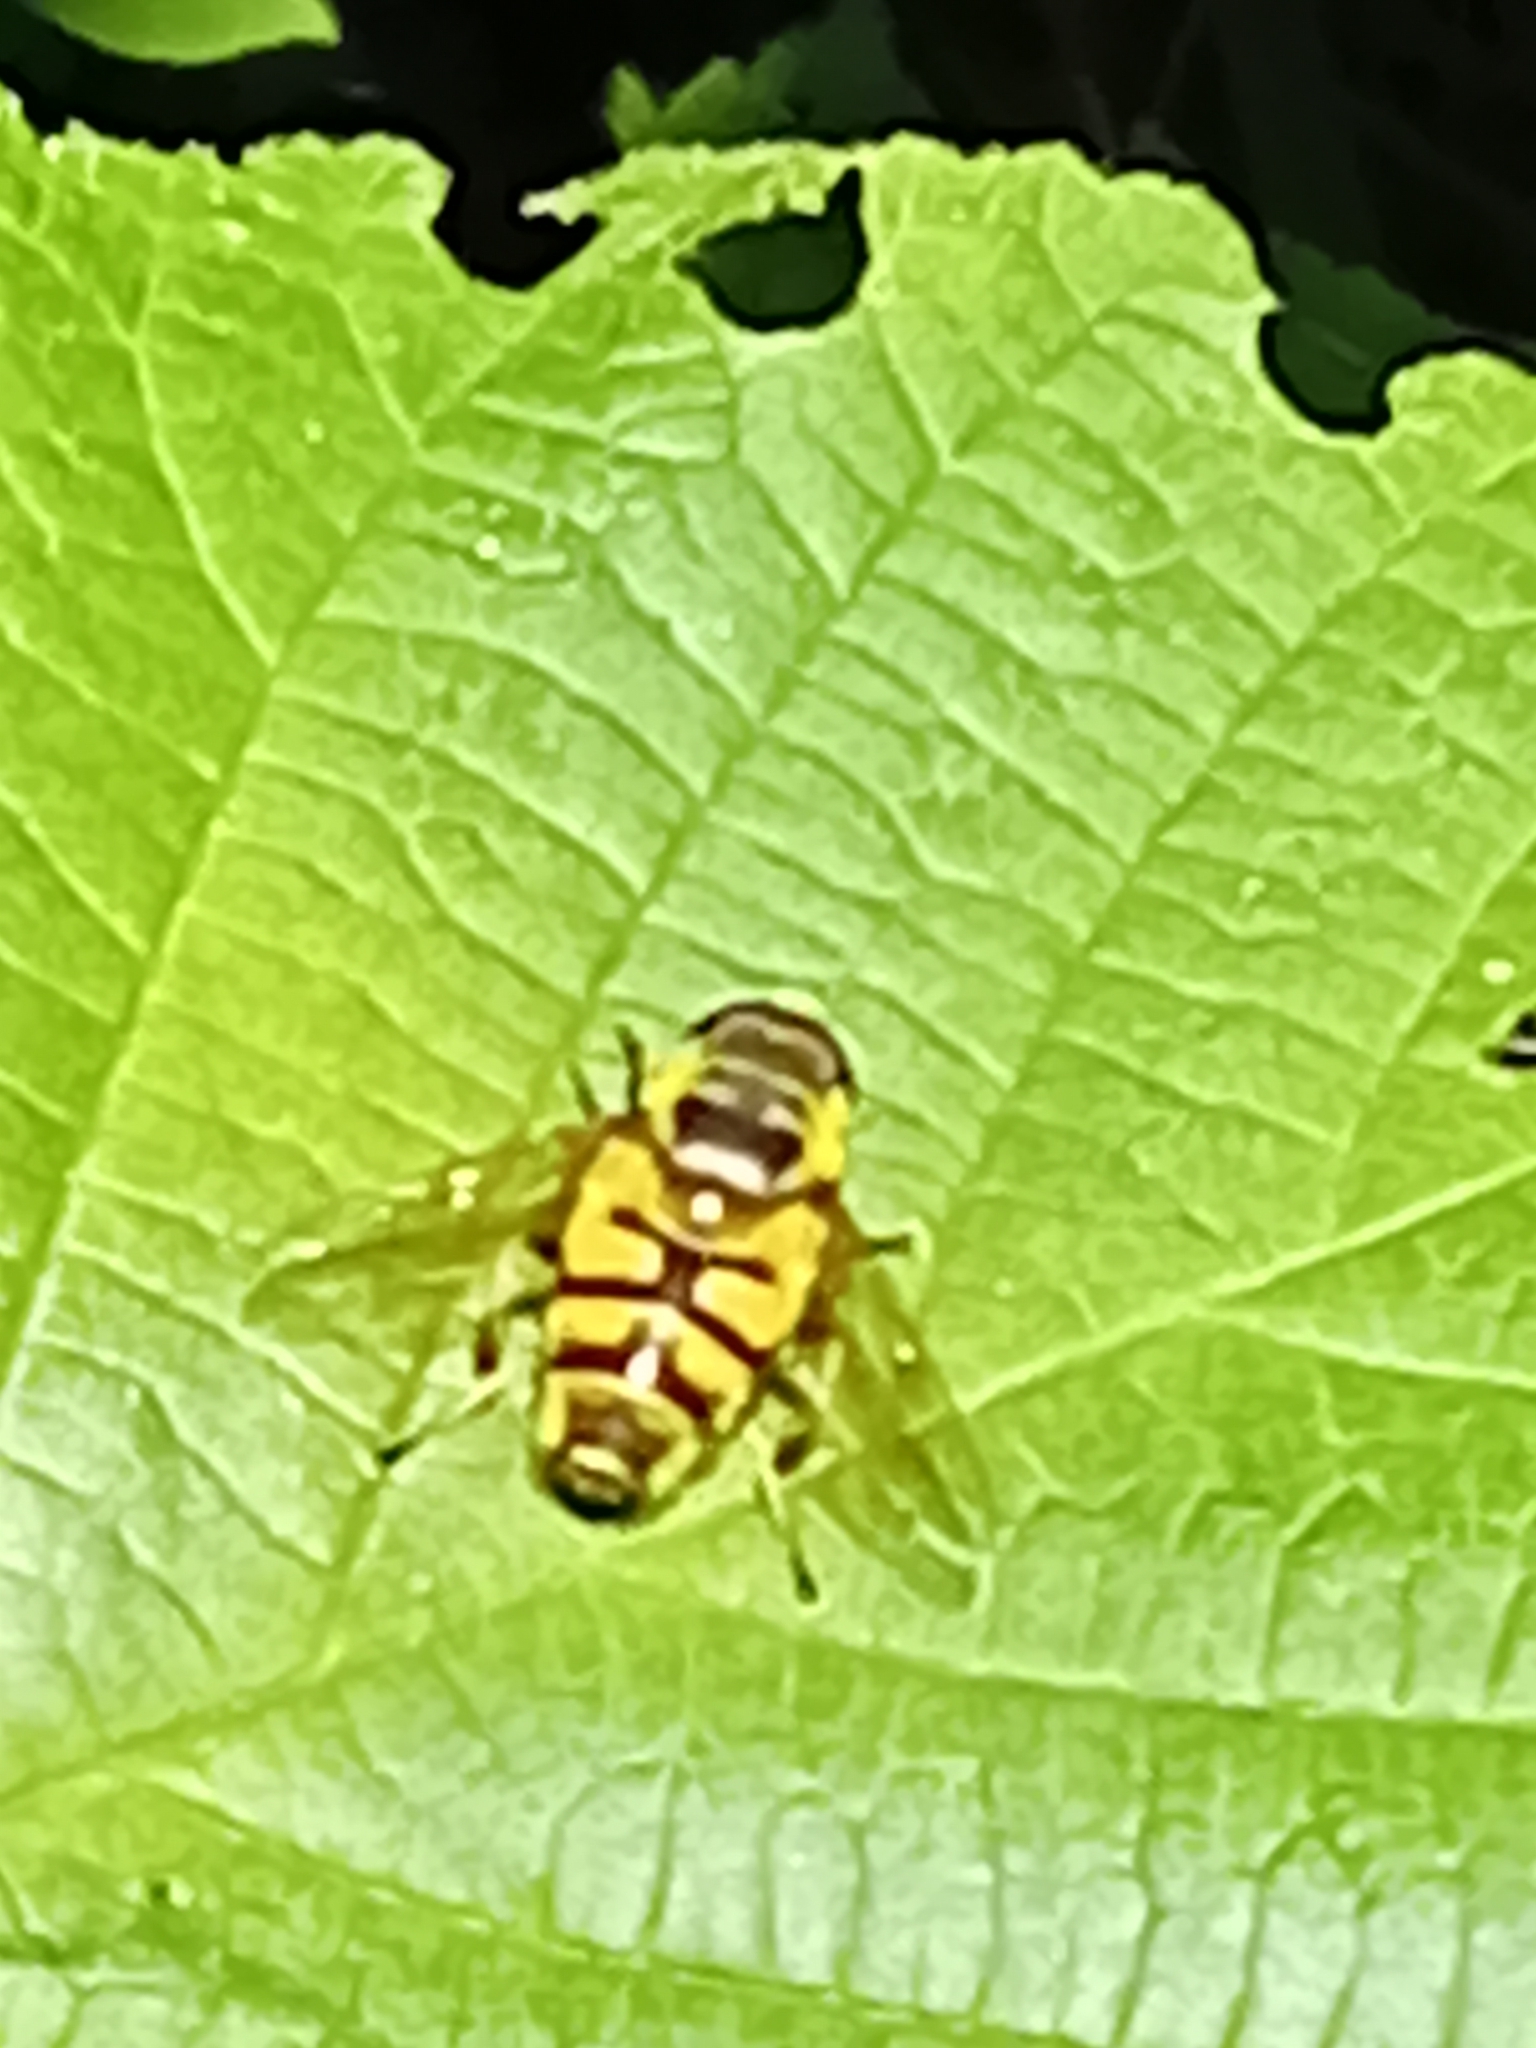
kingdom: Animalia
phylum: Arthropoda
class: Insecta
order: Diptera
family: Syrphidae
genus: Myathropa
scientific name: Myathropa florea
